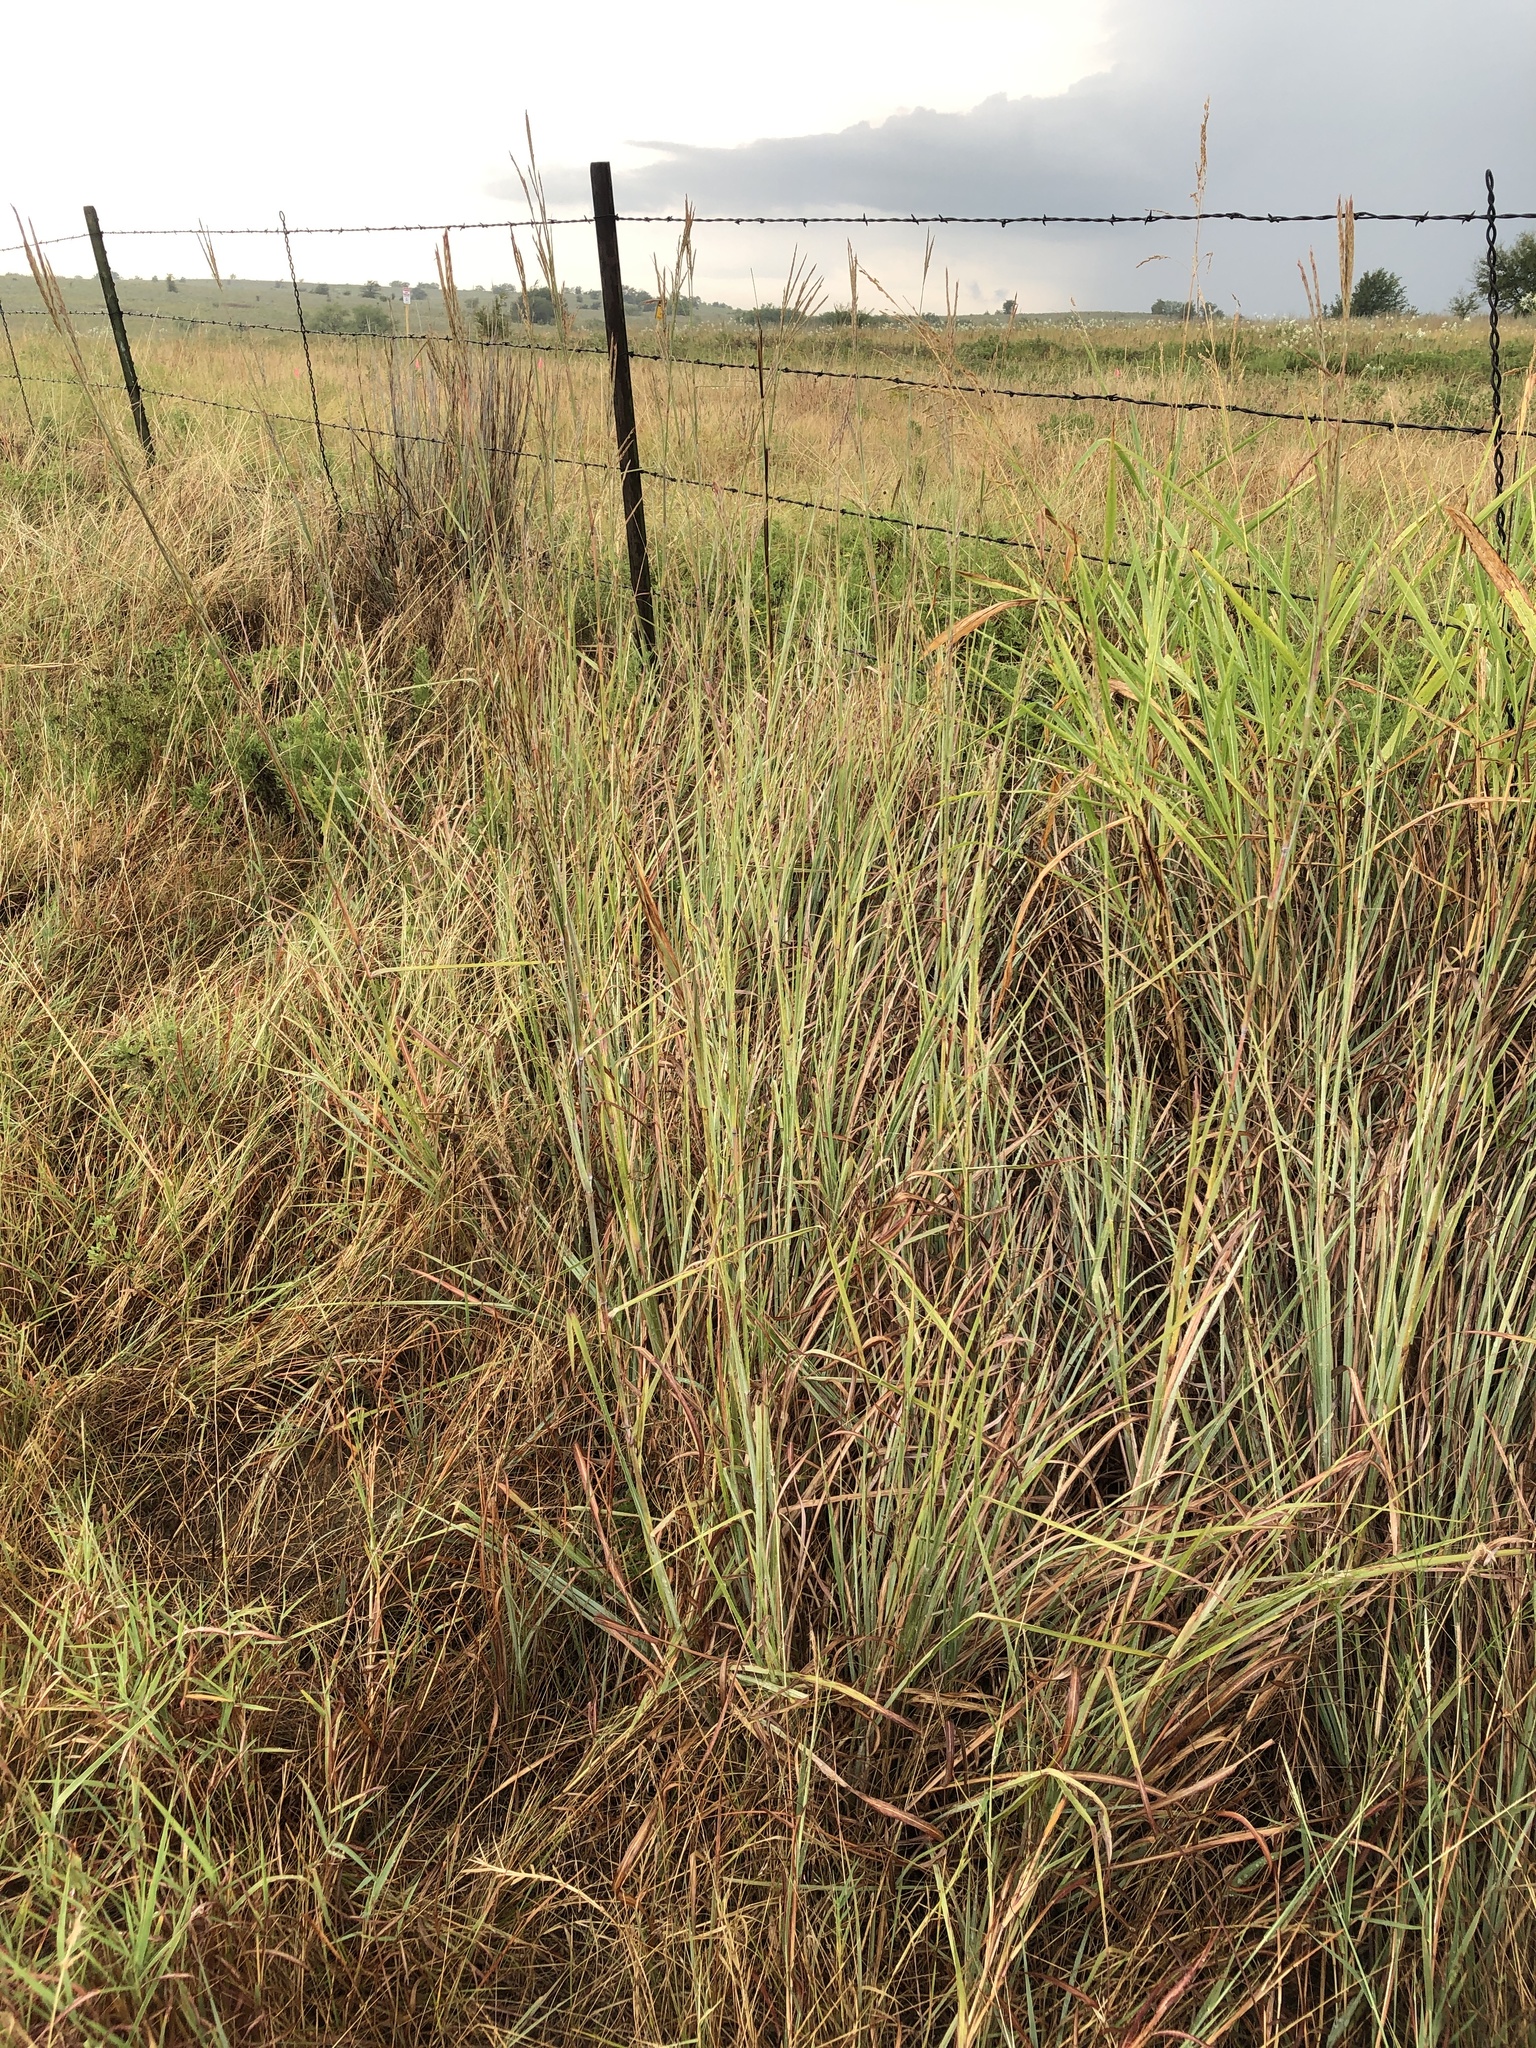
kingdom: Plantae
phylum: Tracheophyta
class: Liliopsida
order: Poales
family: Poaceae
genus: Andropogon
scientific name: Andropogon gerardi
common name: Big bluestem
